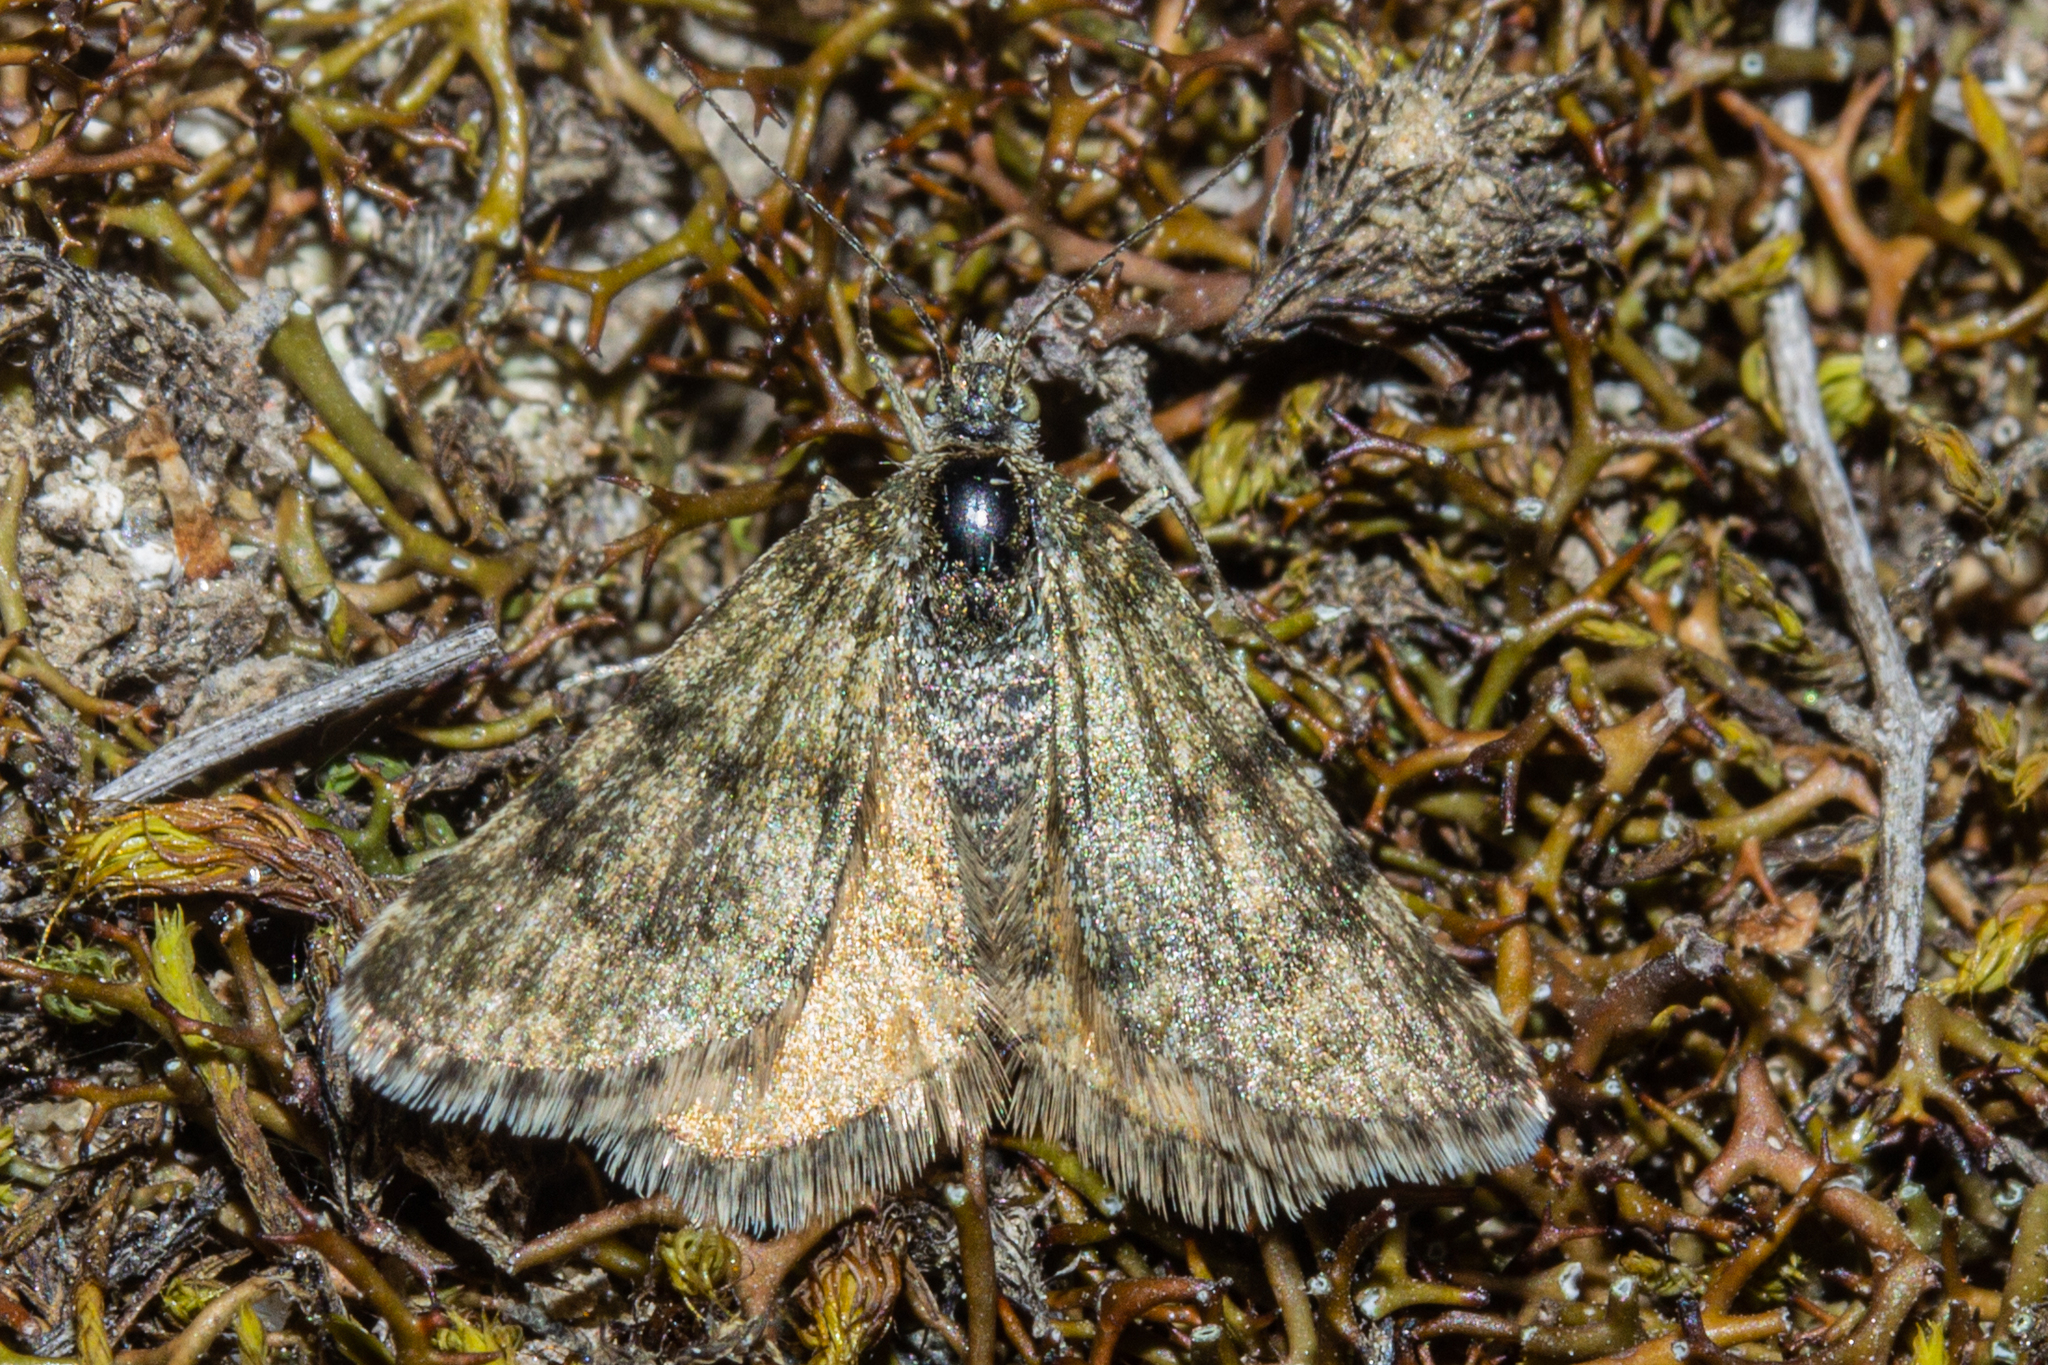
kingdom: Animalia
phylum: Arthropoda
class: Insecta
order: Lepidoptera
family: Geometridae
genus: Paranotoreas
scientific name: Paranotoreas fulva
